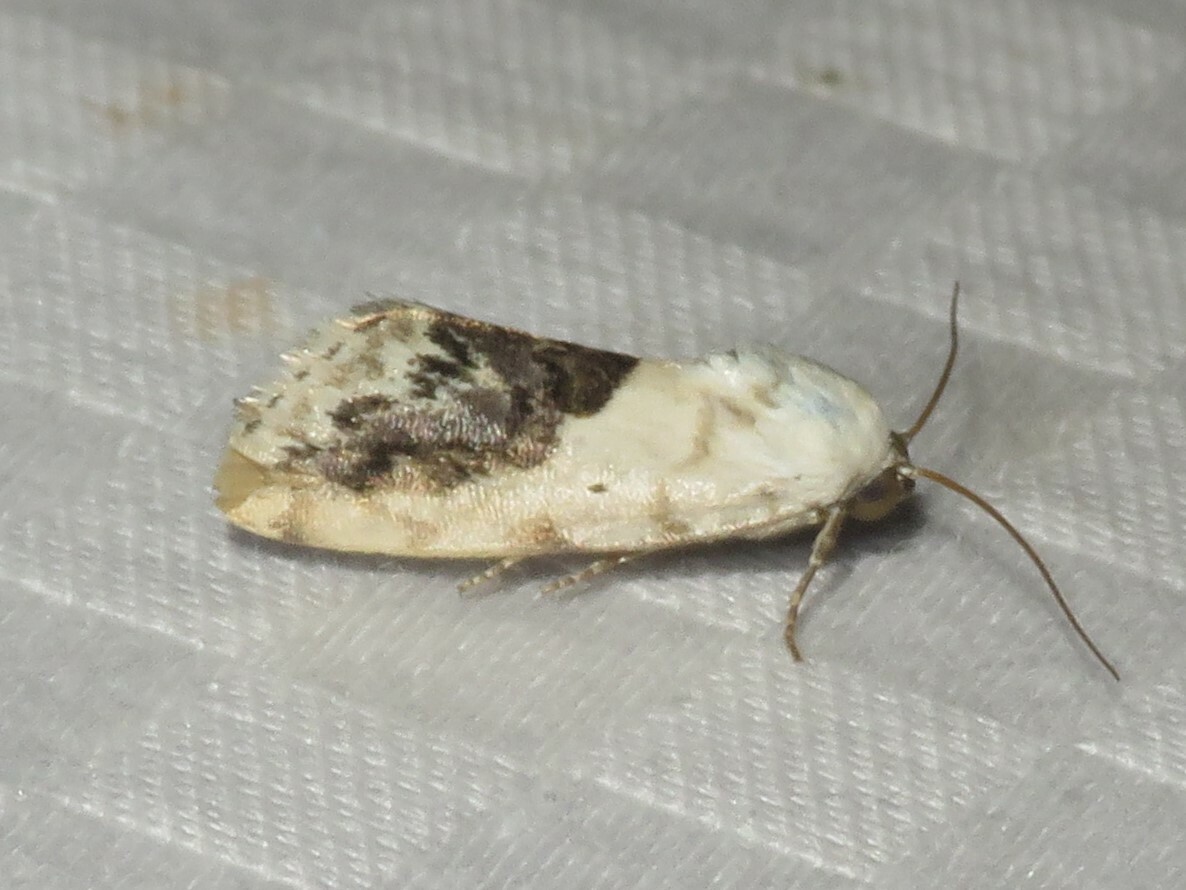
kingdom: Animalia
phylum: Arthropoda
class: Insecta
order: Lepidoptera
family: Noctuidae
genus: Acontia
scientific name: Acontia erastrioides
